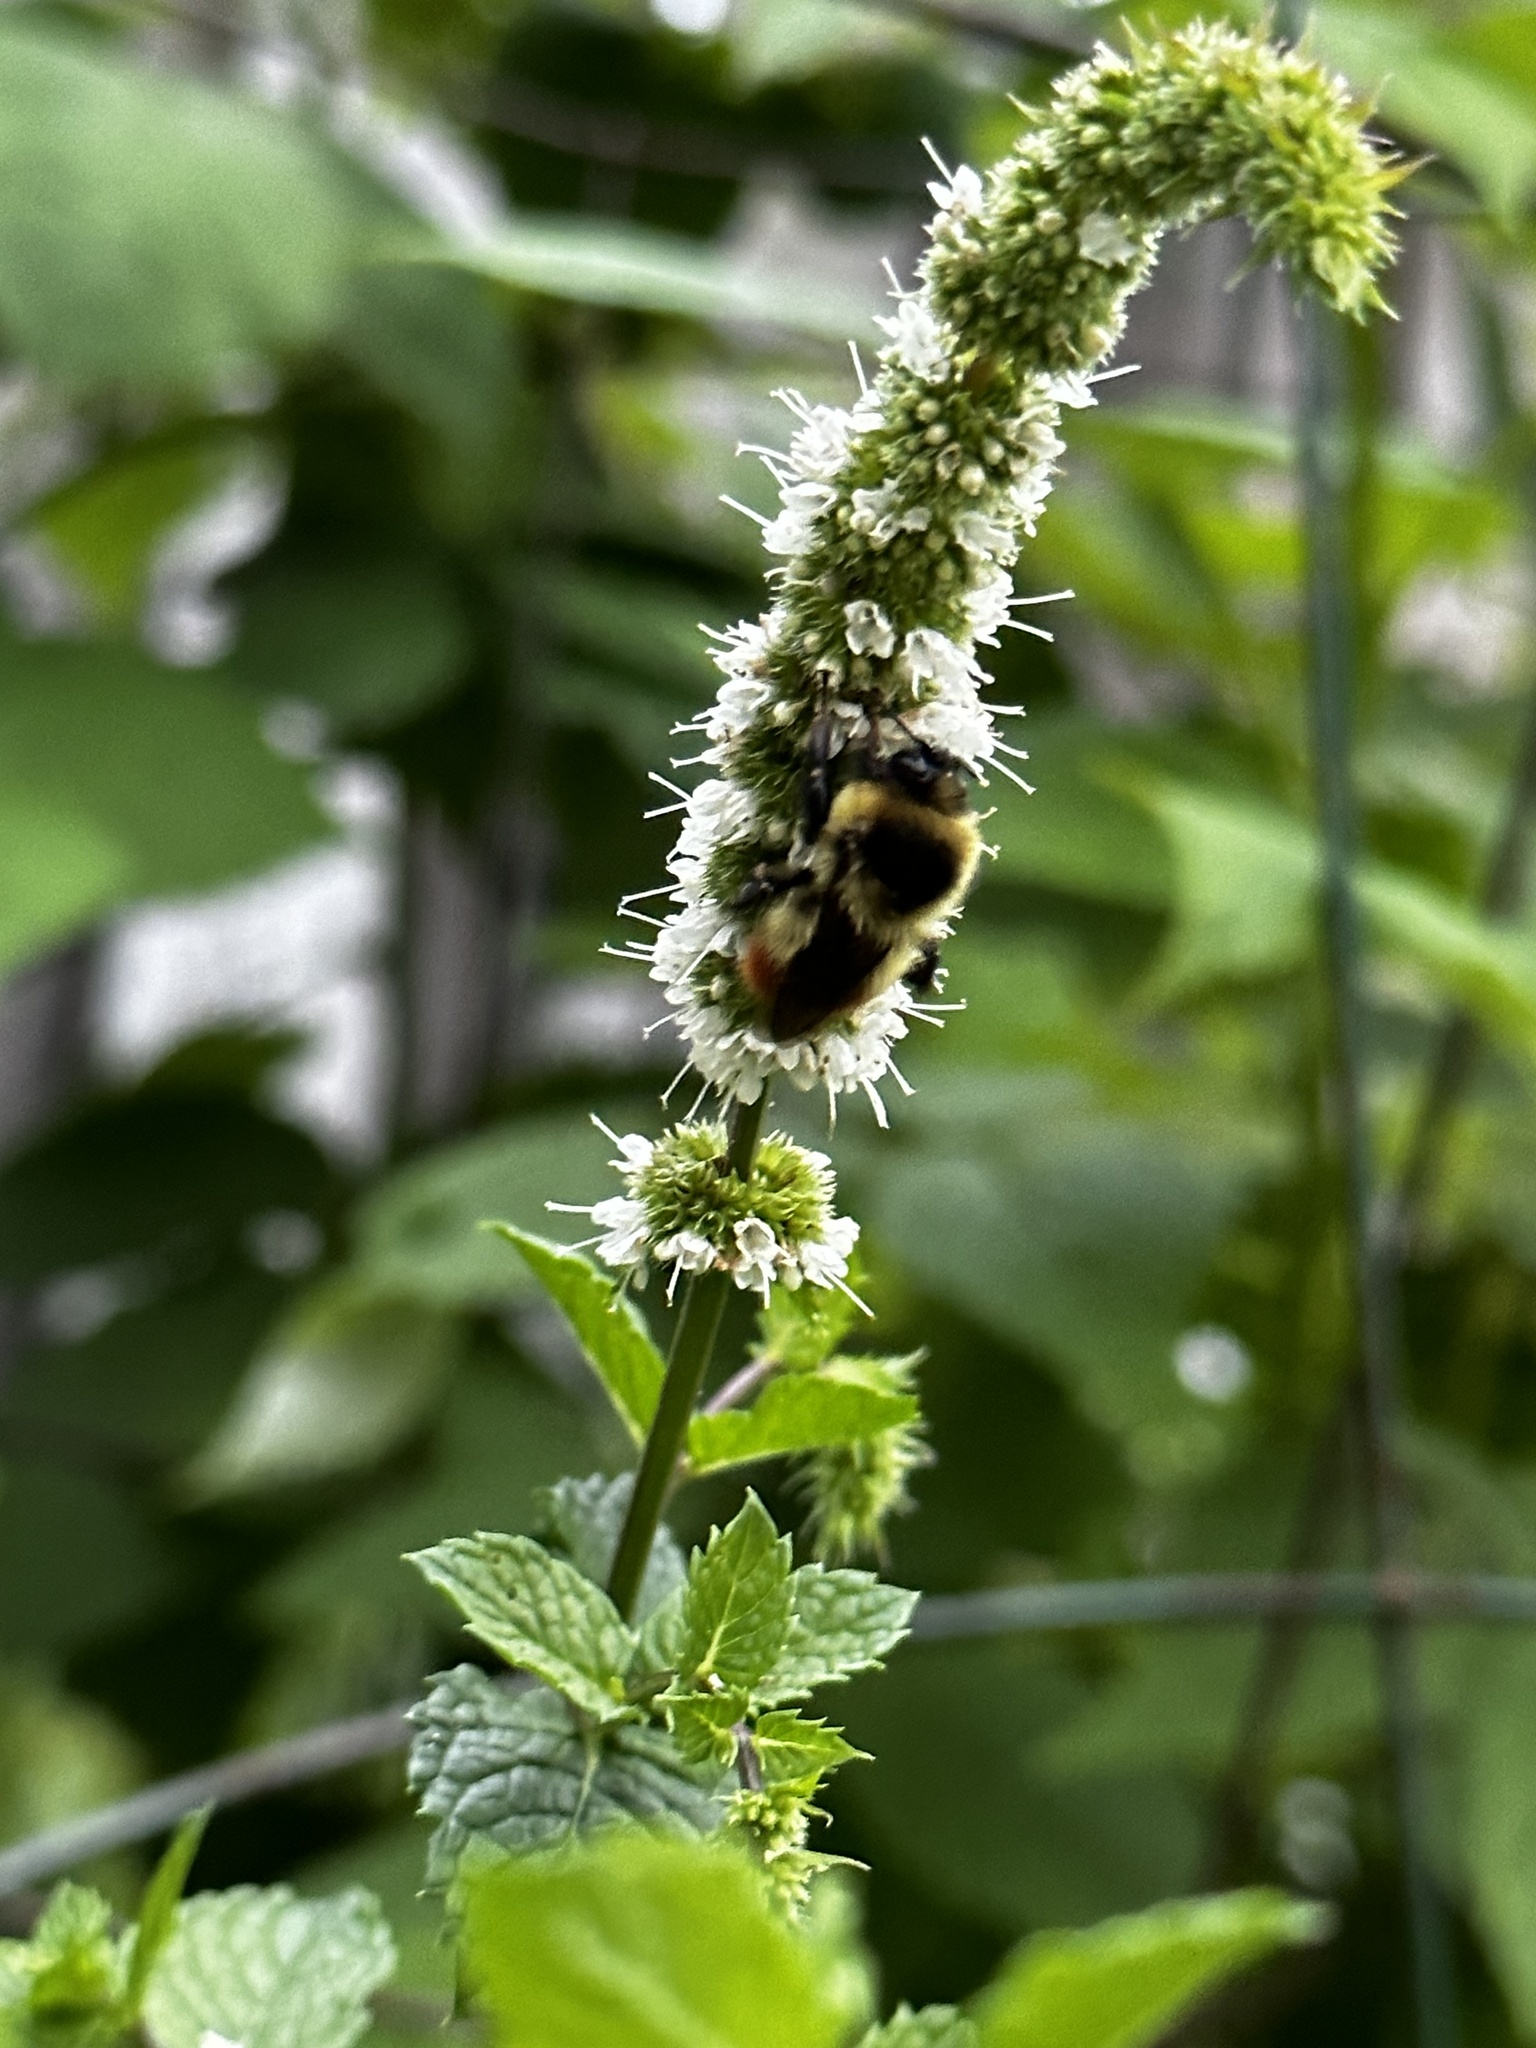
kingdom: Animalia
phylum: Arthropoda
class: Insecta
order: Hymenoptera
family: Apidae
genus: Bombus
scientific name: Bombus rufocinctus
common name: Red-belted bumble bee
